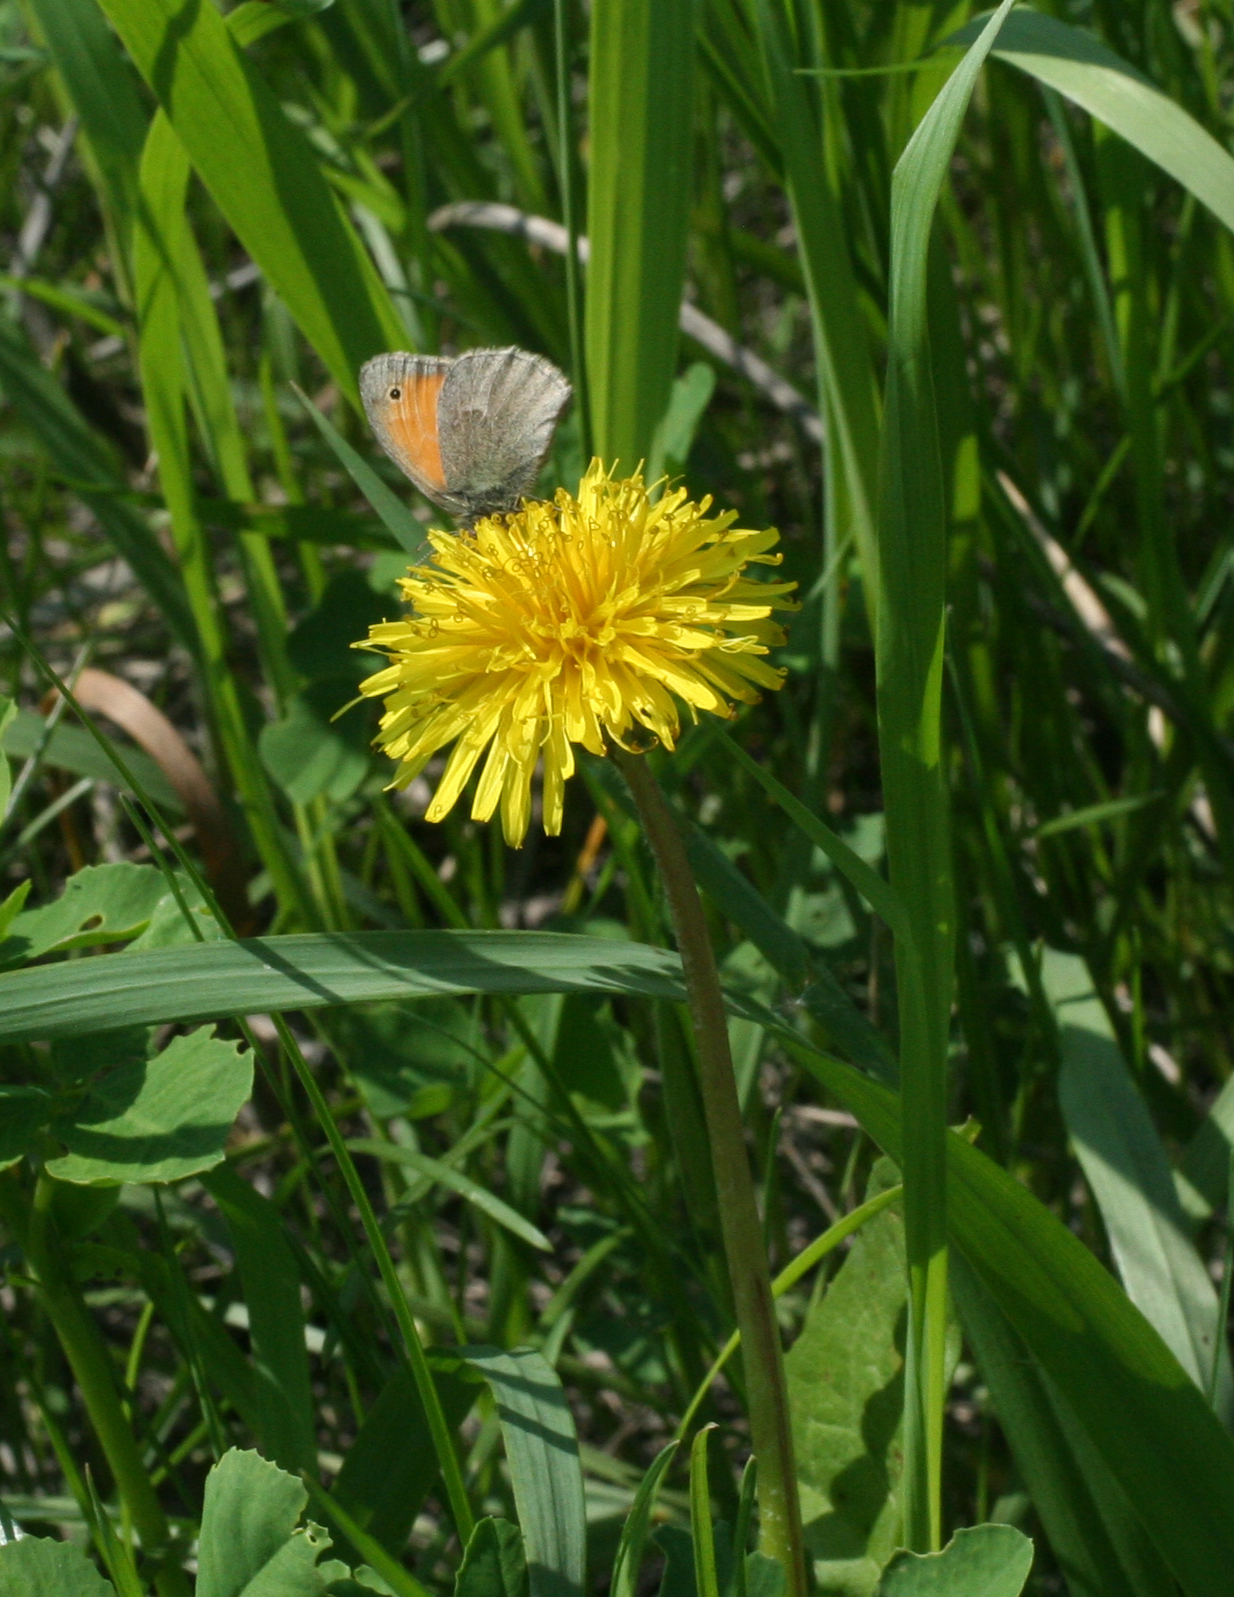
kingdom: Animalia
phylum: Arthropoda
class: Insecta
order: Lepidoptera
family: Nymphalidae
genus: Coenonympha
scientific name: Coenonympha pamphilus
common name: Small heath
